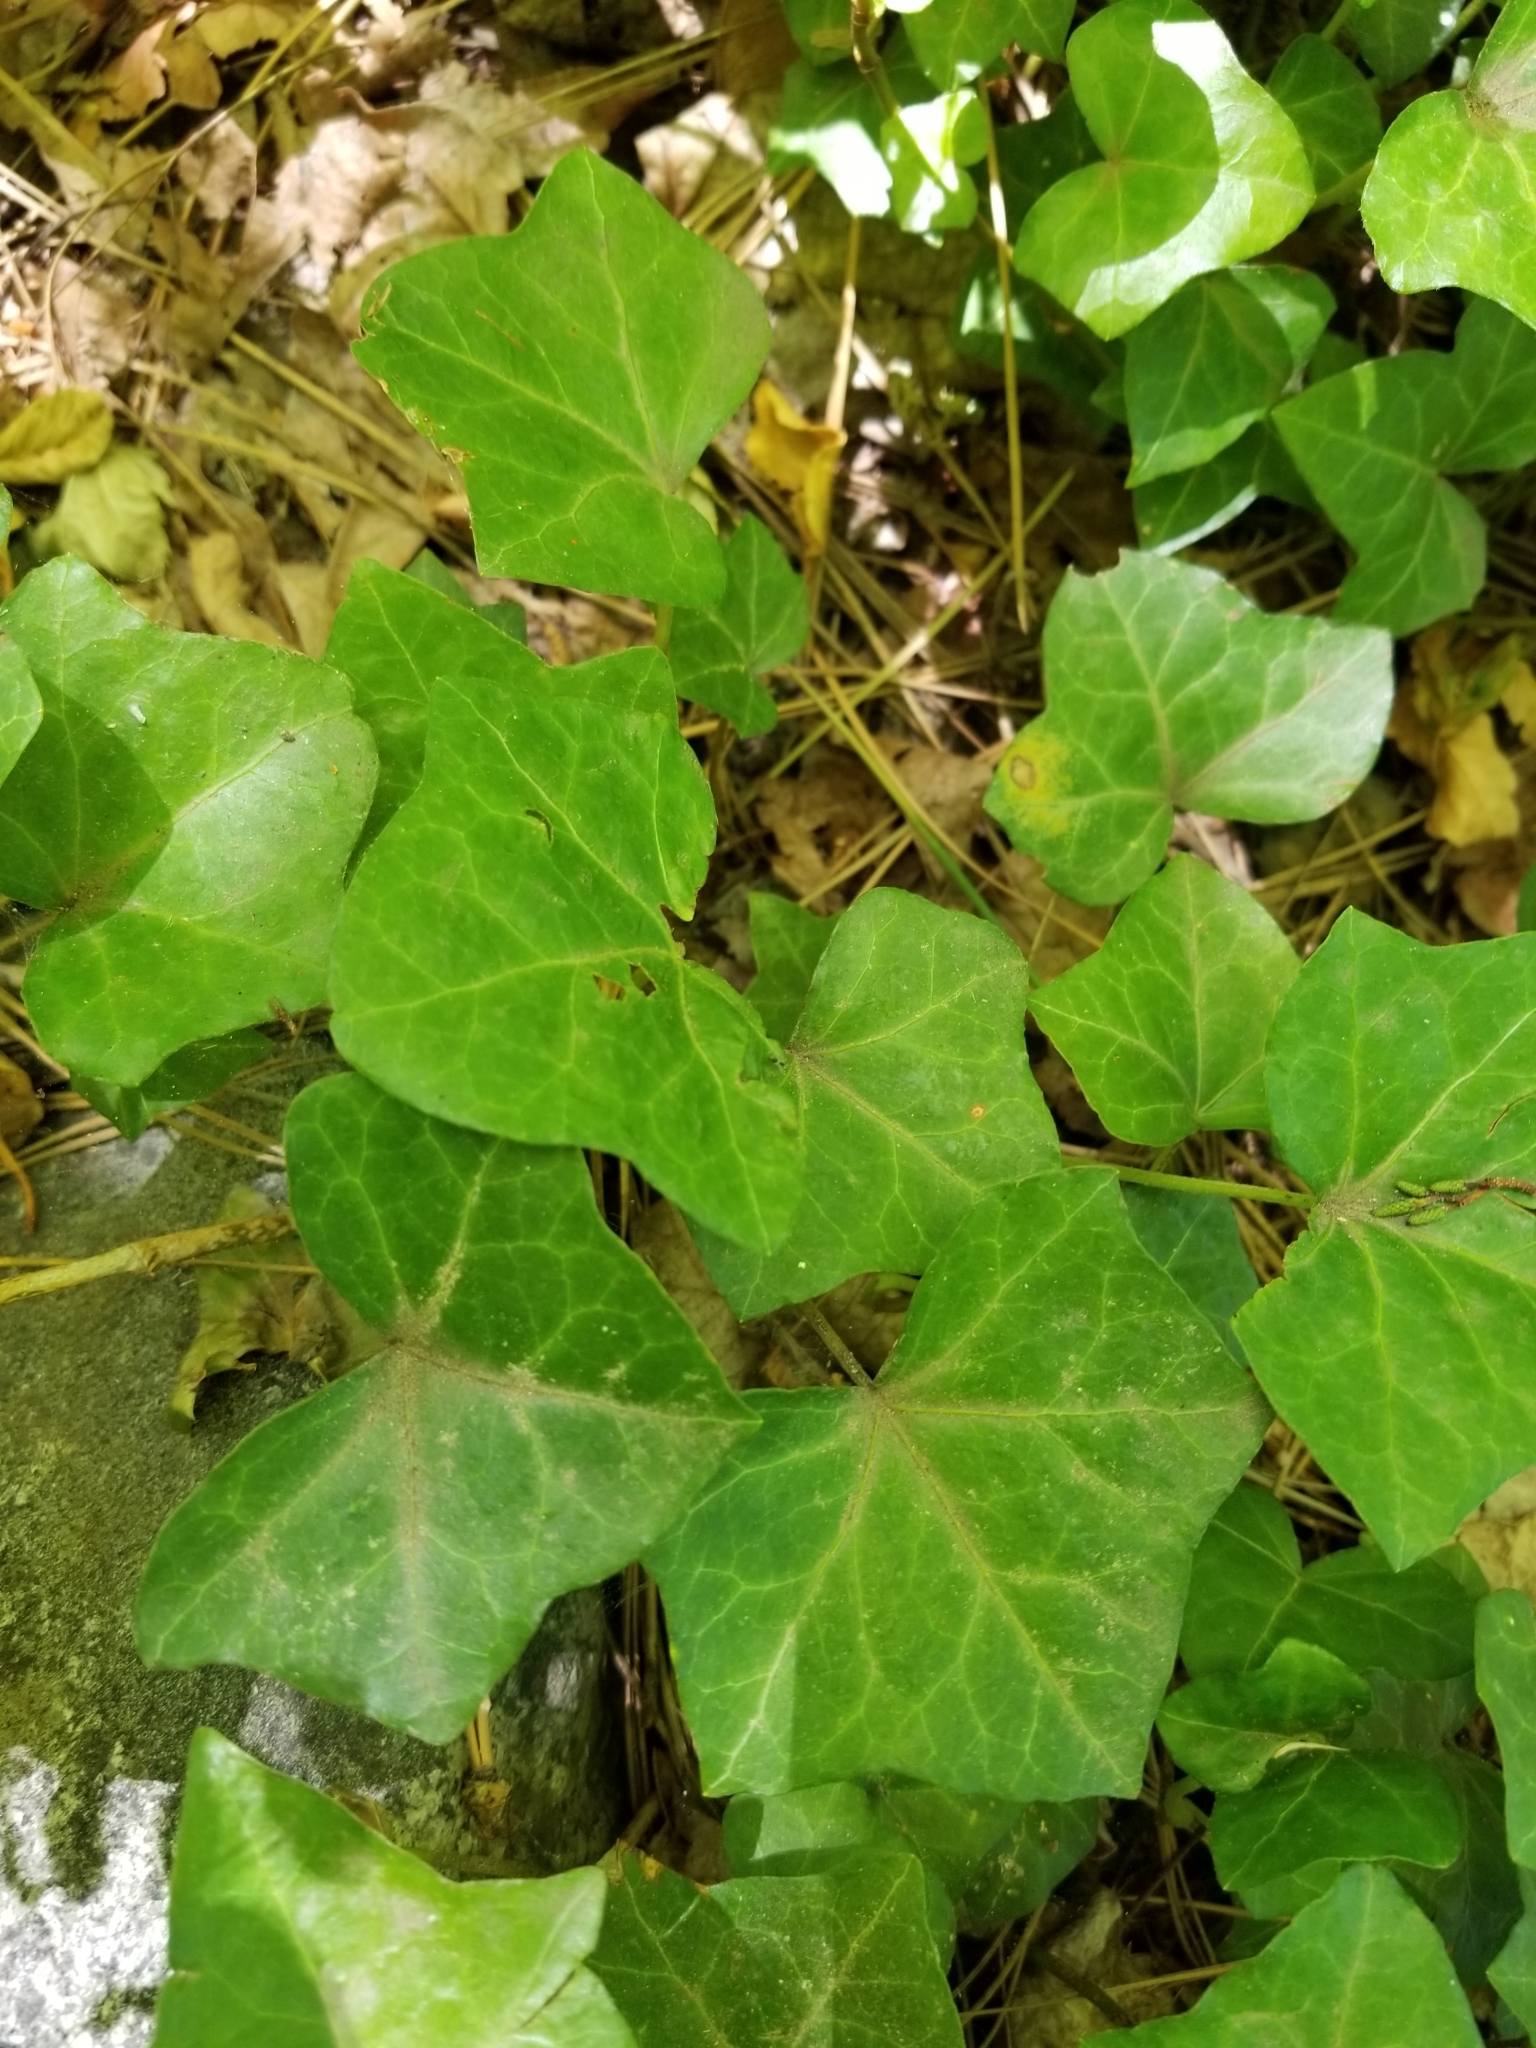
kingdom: Plantae
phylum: Tracheophyta
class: Magnoliopsida
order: Apiales
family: Araliaceae
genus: Hedera
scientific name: Hedera helix
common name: Ivy
